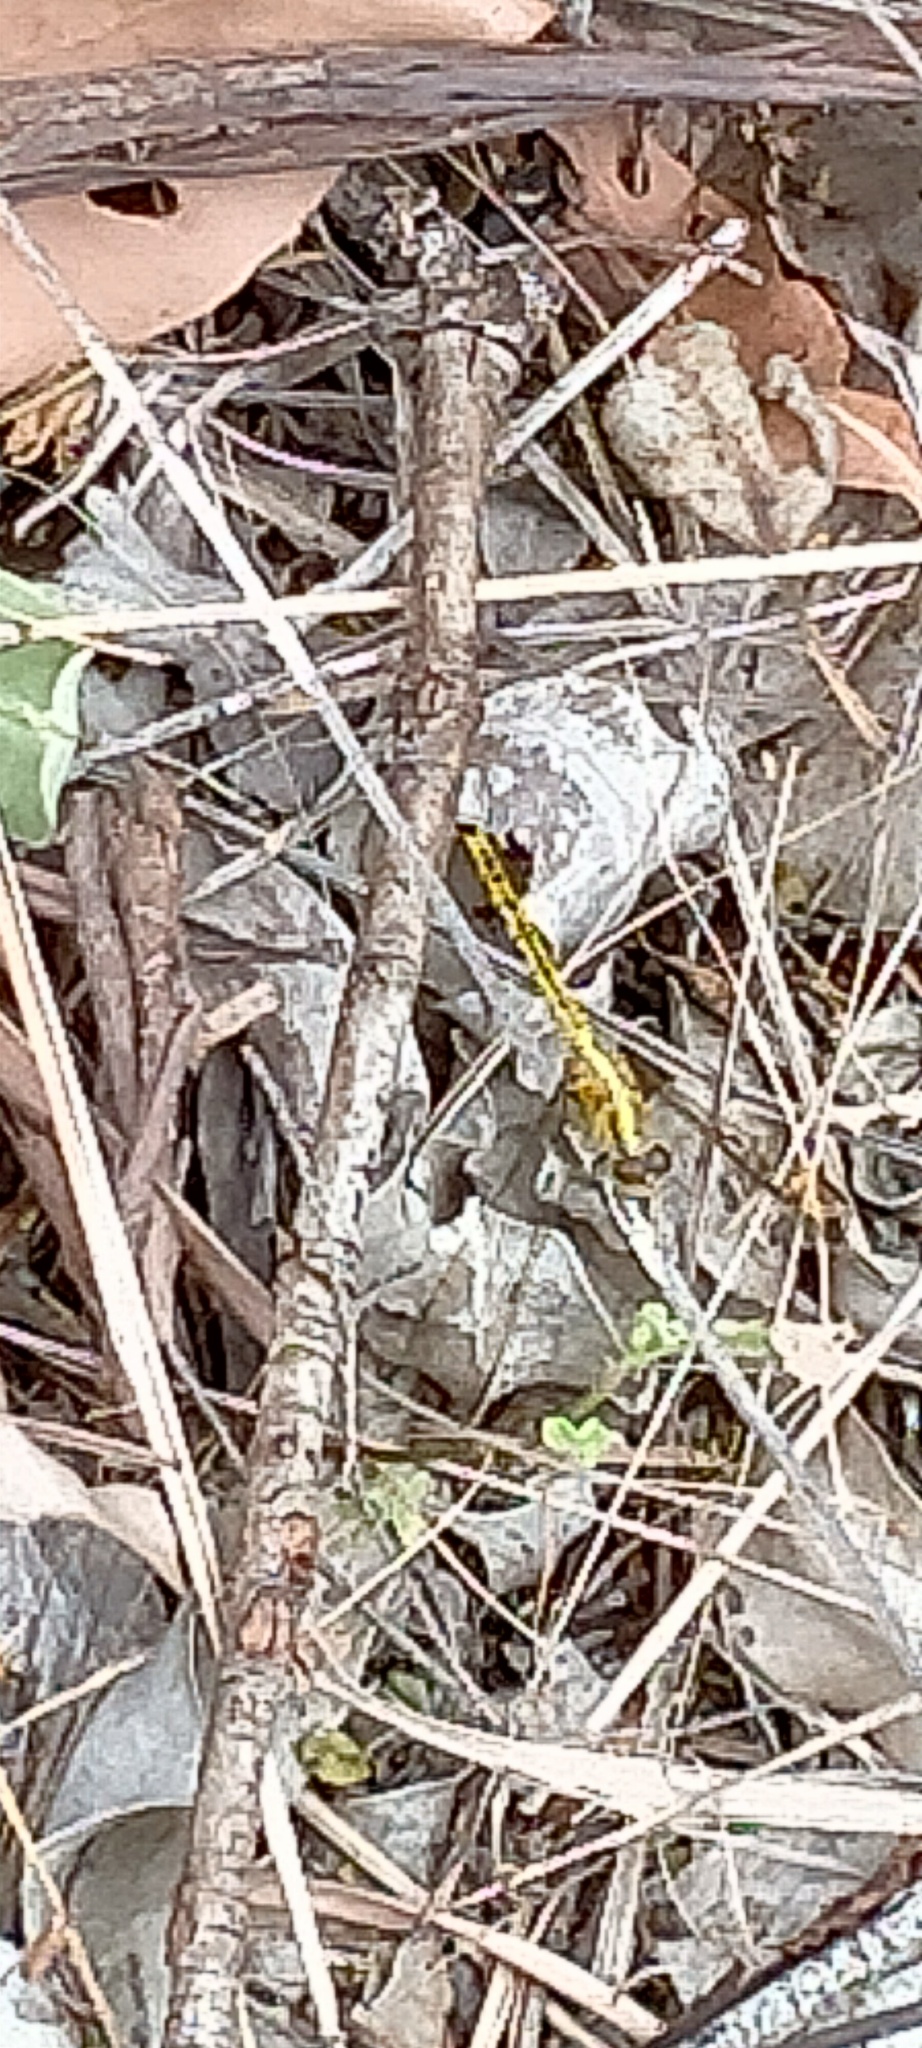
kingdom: Animalia
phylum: Arthropoda
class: Insecta
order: Odonata
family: Libellulidae
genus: Diplacodes
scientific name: Diplacodes melanopsis
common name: Black-faced percher
